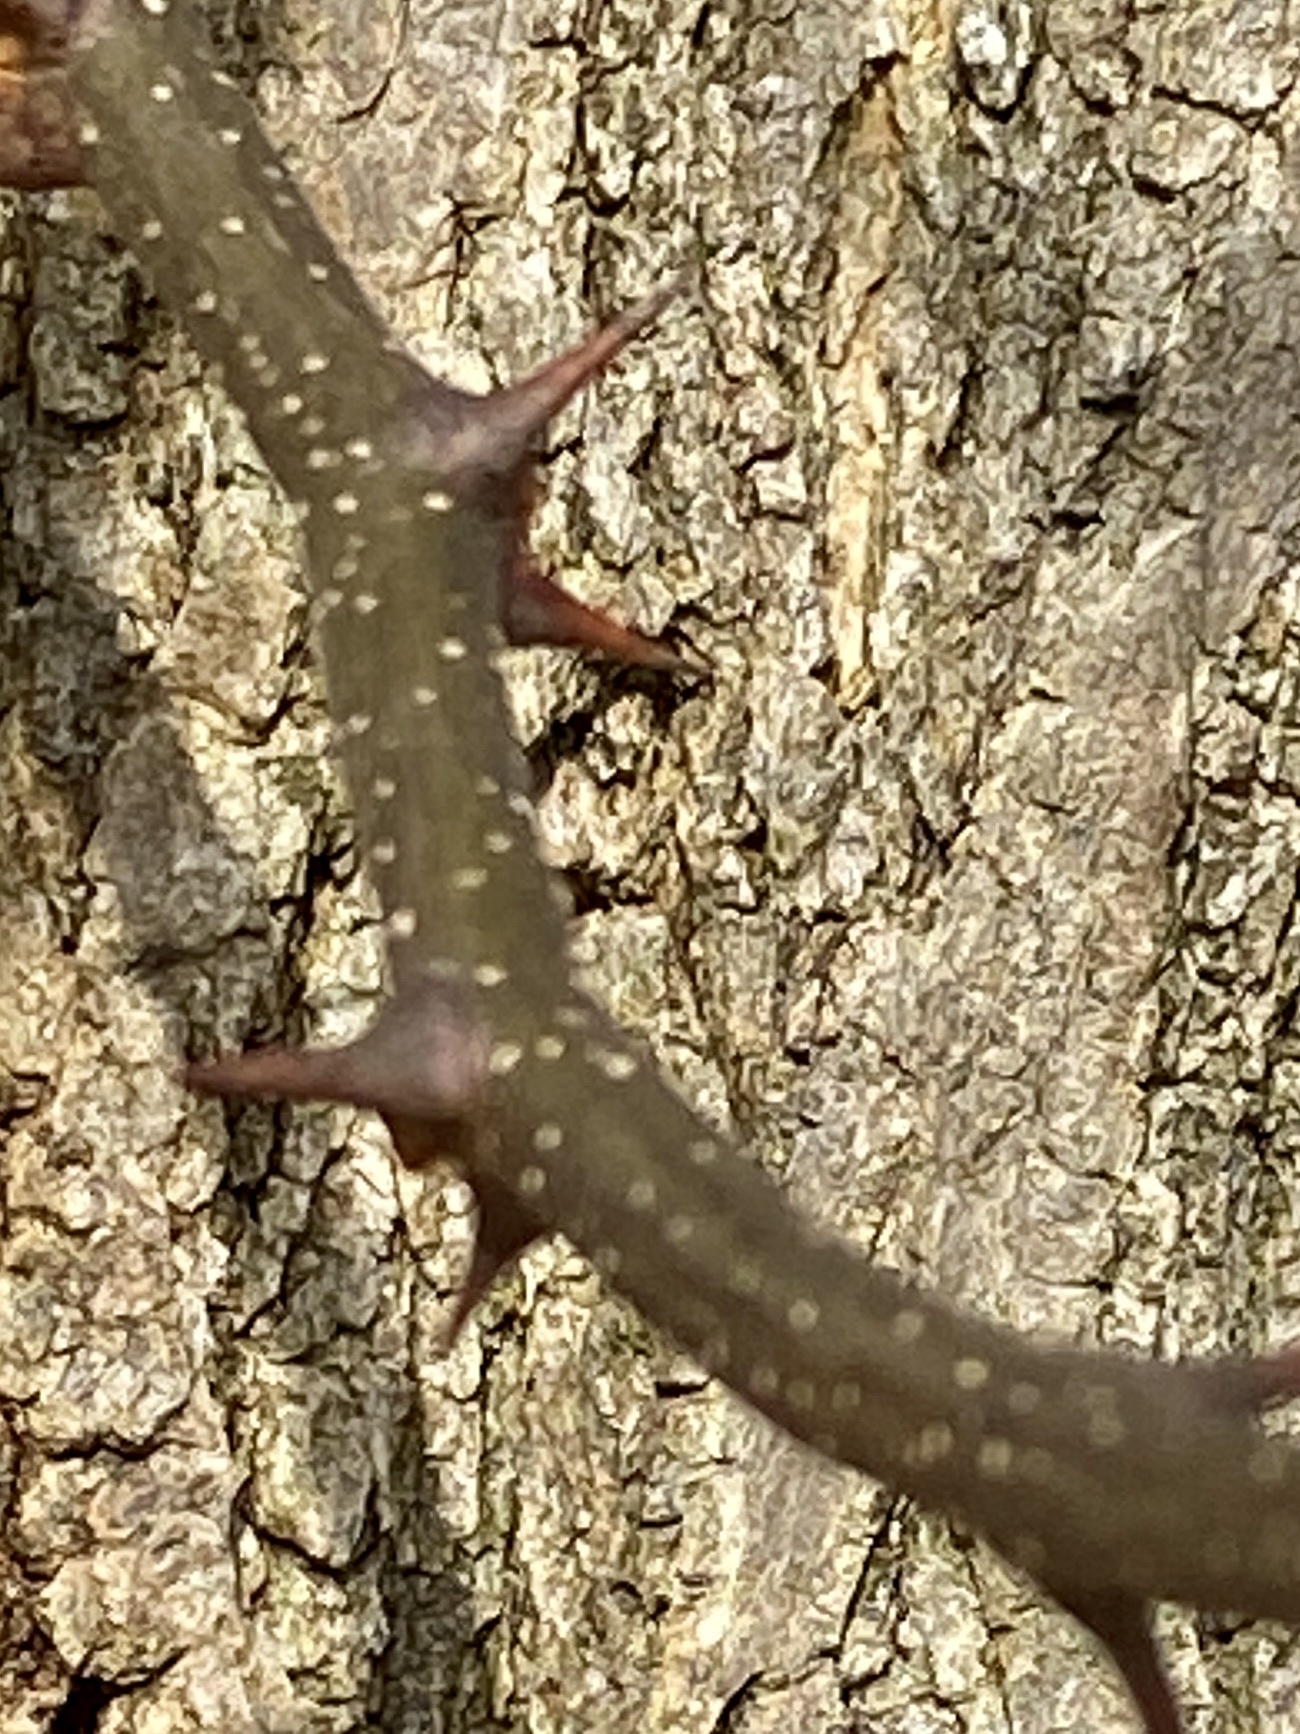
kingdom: Plantae
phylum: Tracheophyta
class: Magnoliopsida
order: Fabales
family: Fabaceae
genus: Robinia
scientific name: Robinia pseudoacacia
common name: Black locust
